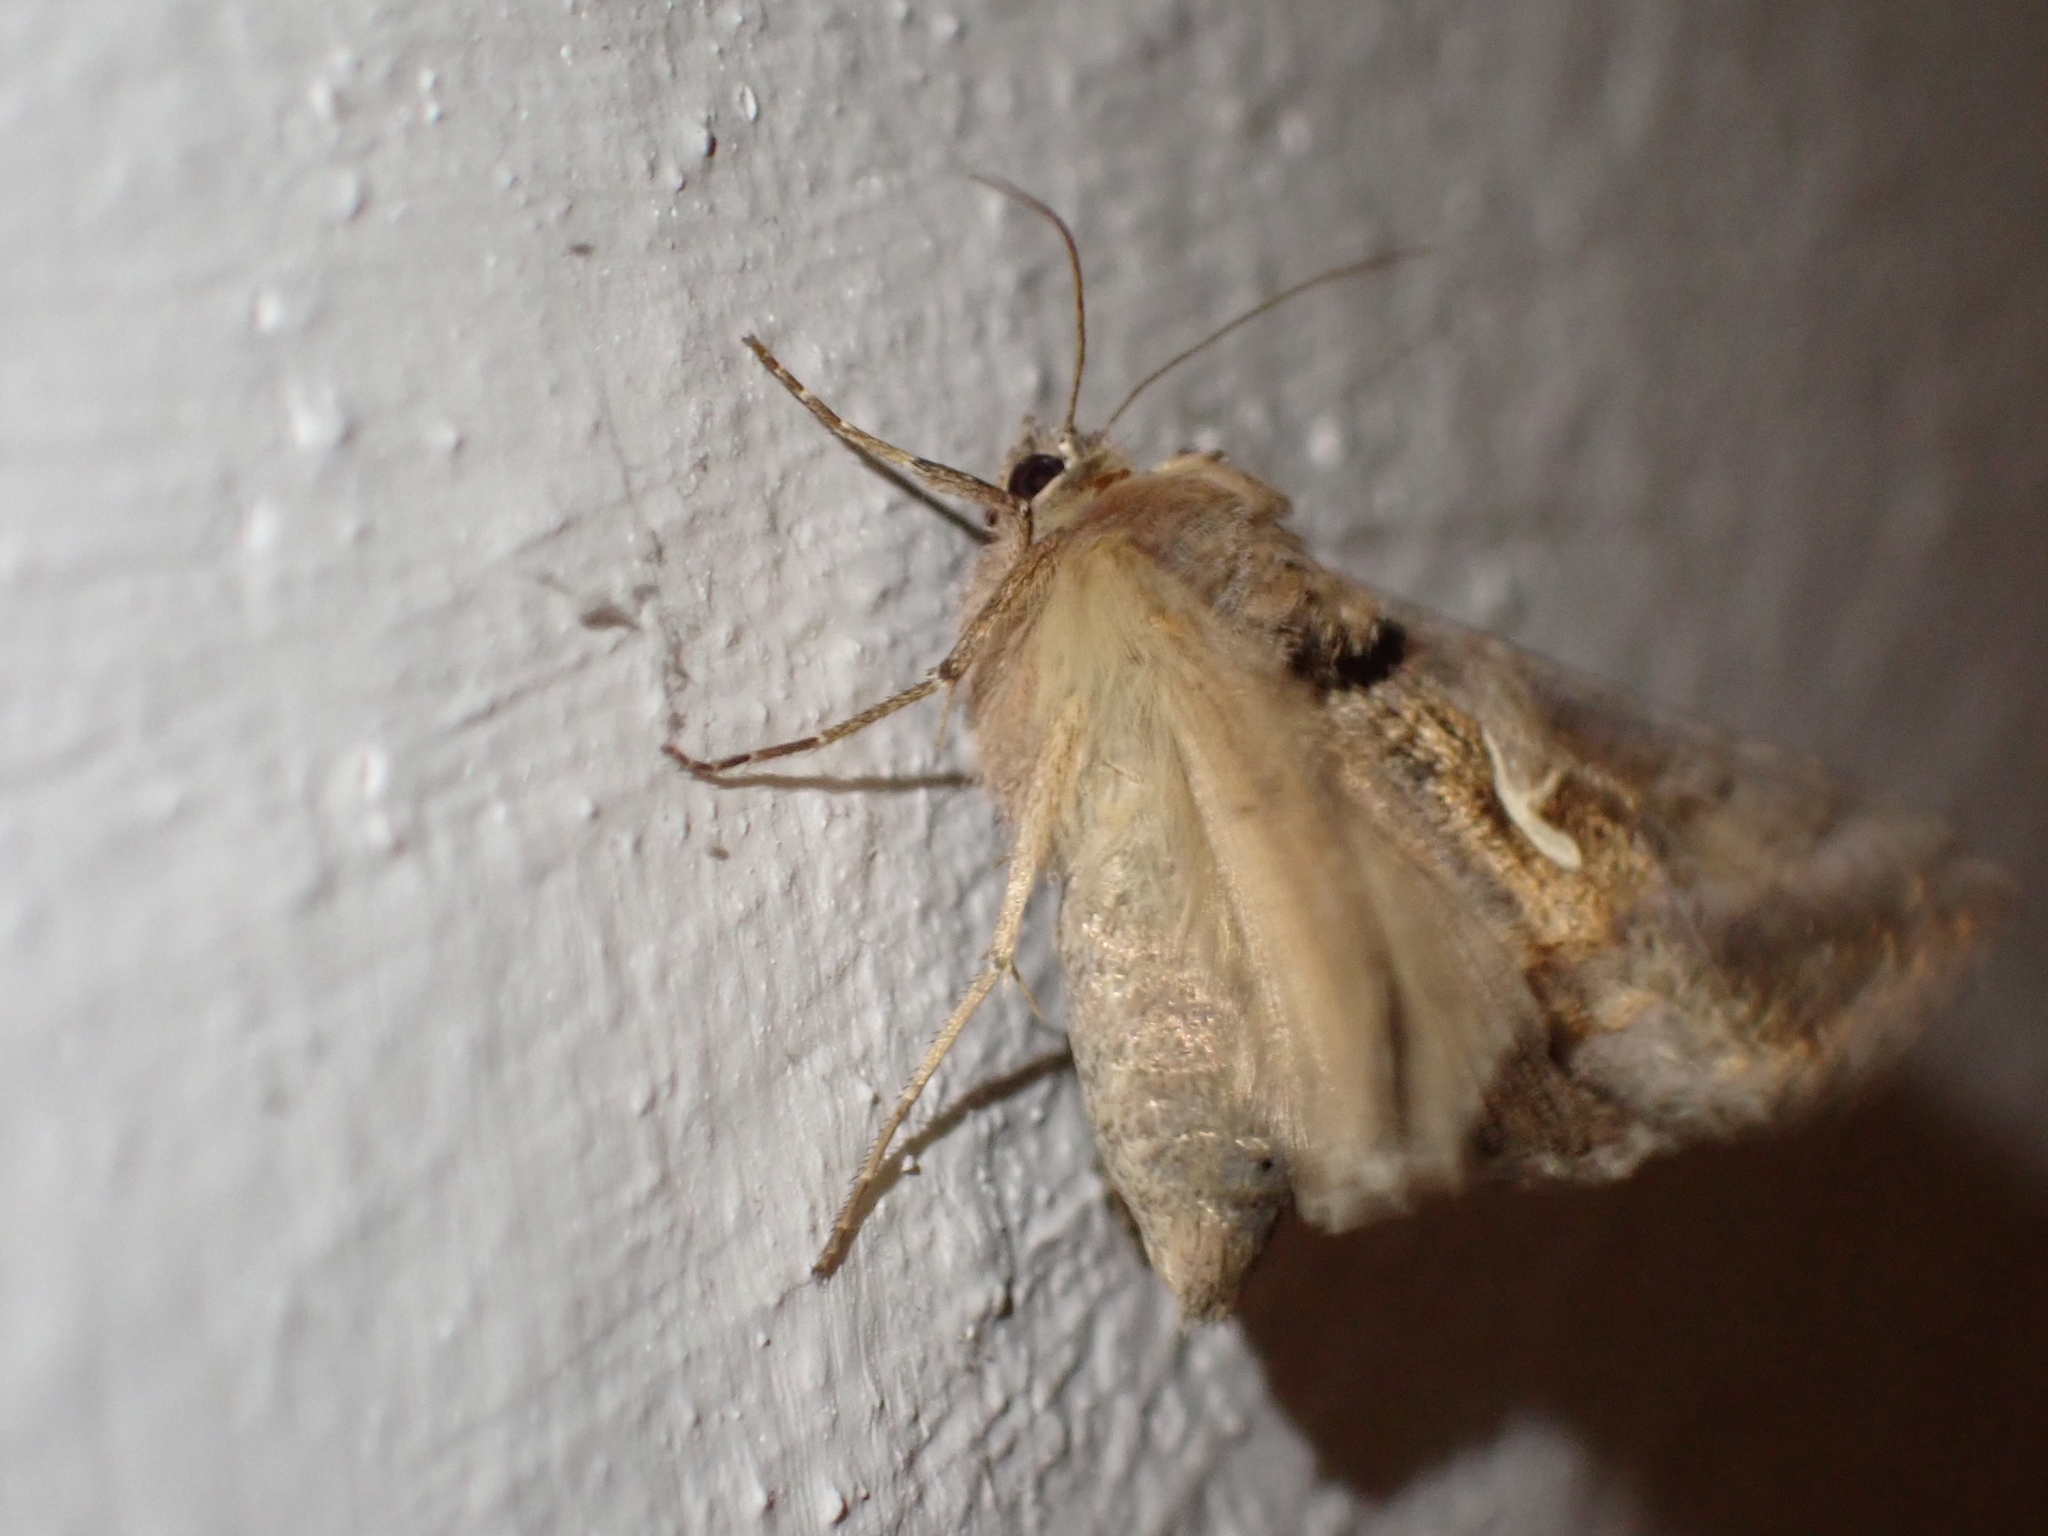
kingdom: Animalia
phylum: Arthropoda
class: Insecta
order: Lepidoptera
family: Noctuidae
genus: Autographa
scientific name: Autographa gamma
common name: Silver y
